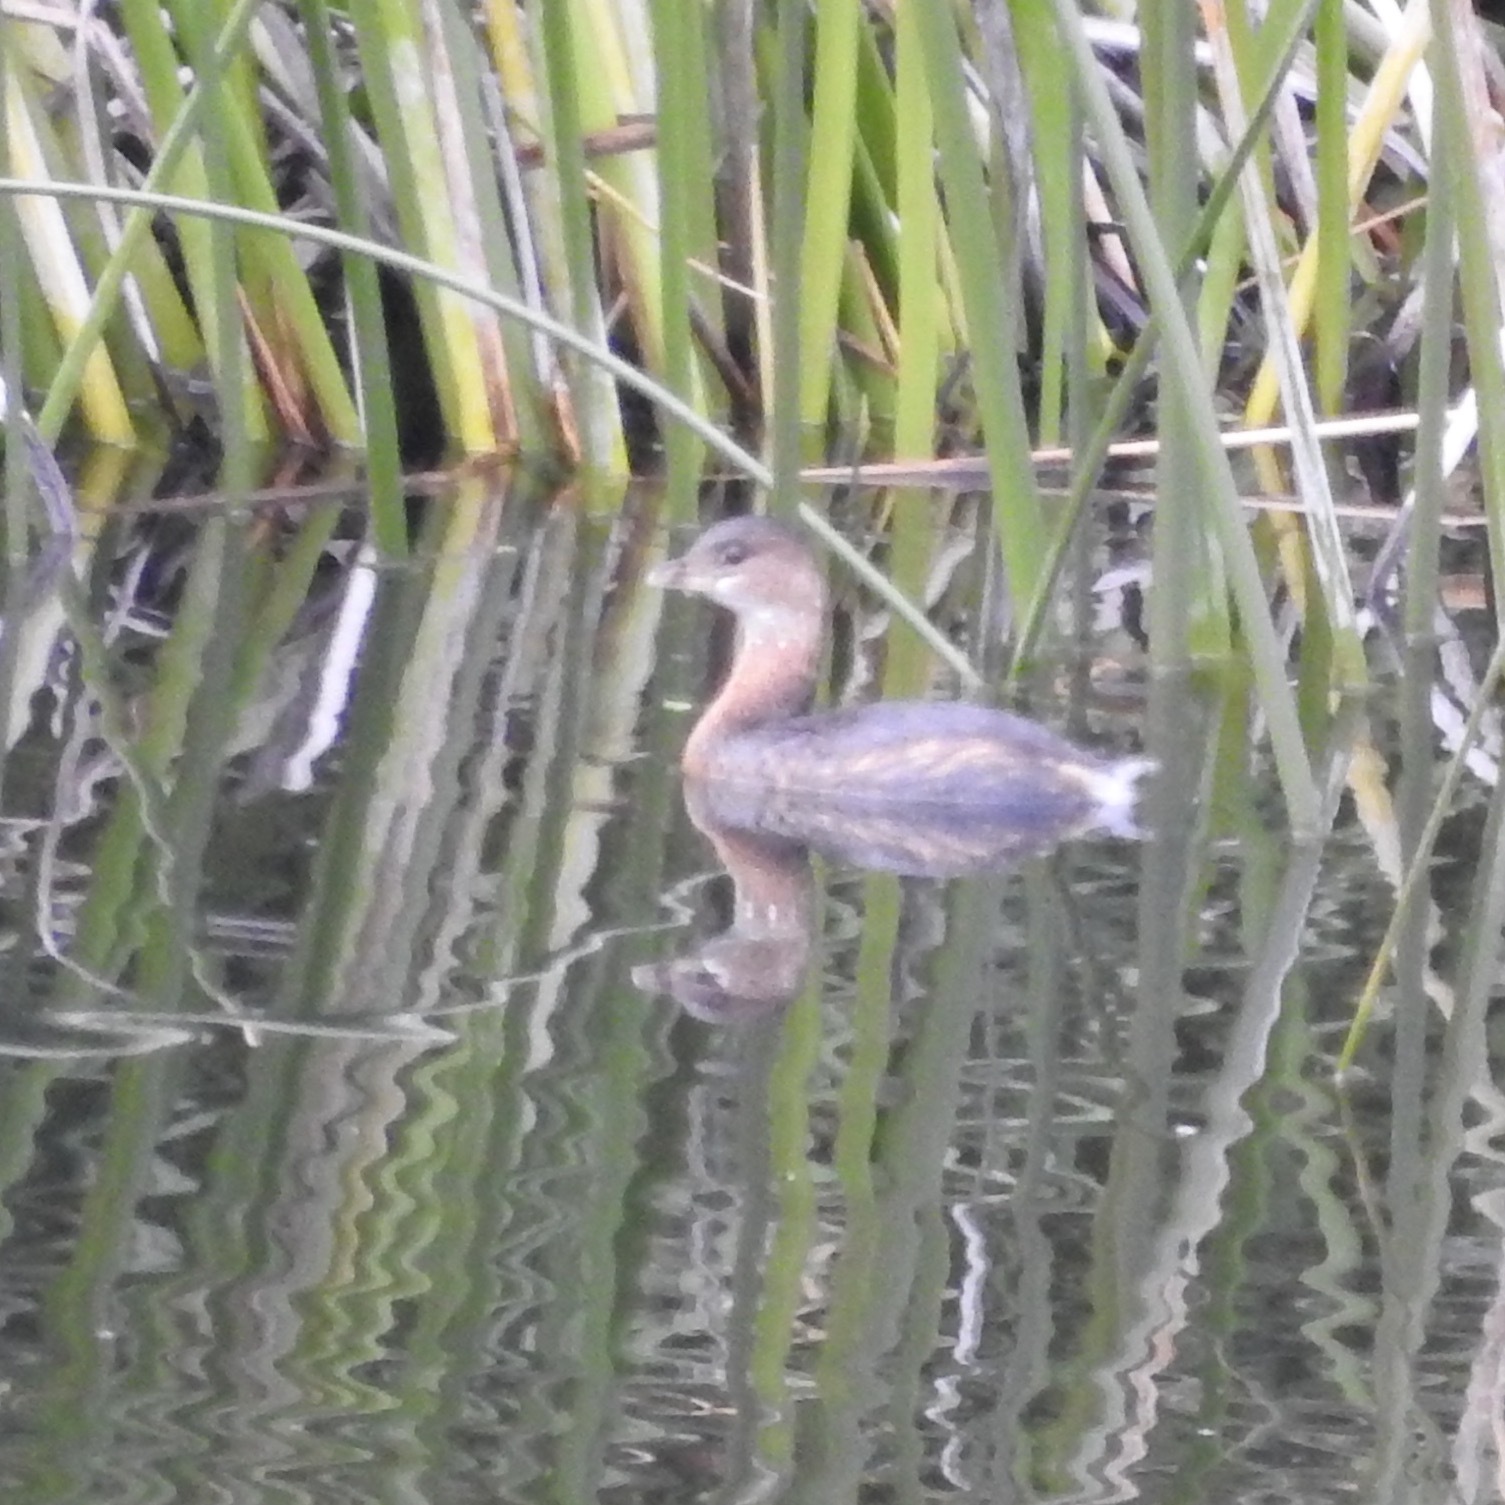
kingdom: Animalia
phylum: Chordata
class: Aves
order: Podicipediformes
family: Podicipedidae
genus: Podilymbus
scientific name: Podilymbus podiceps
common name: Pied-billed grebe
